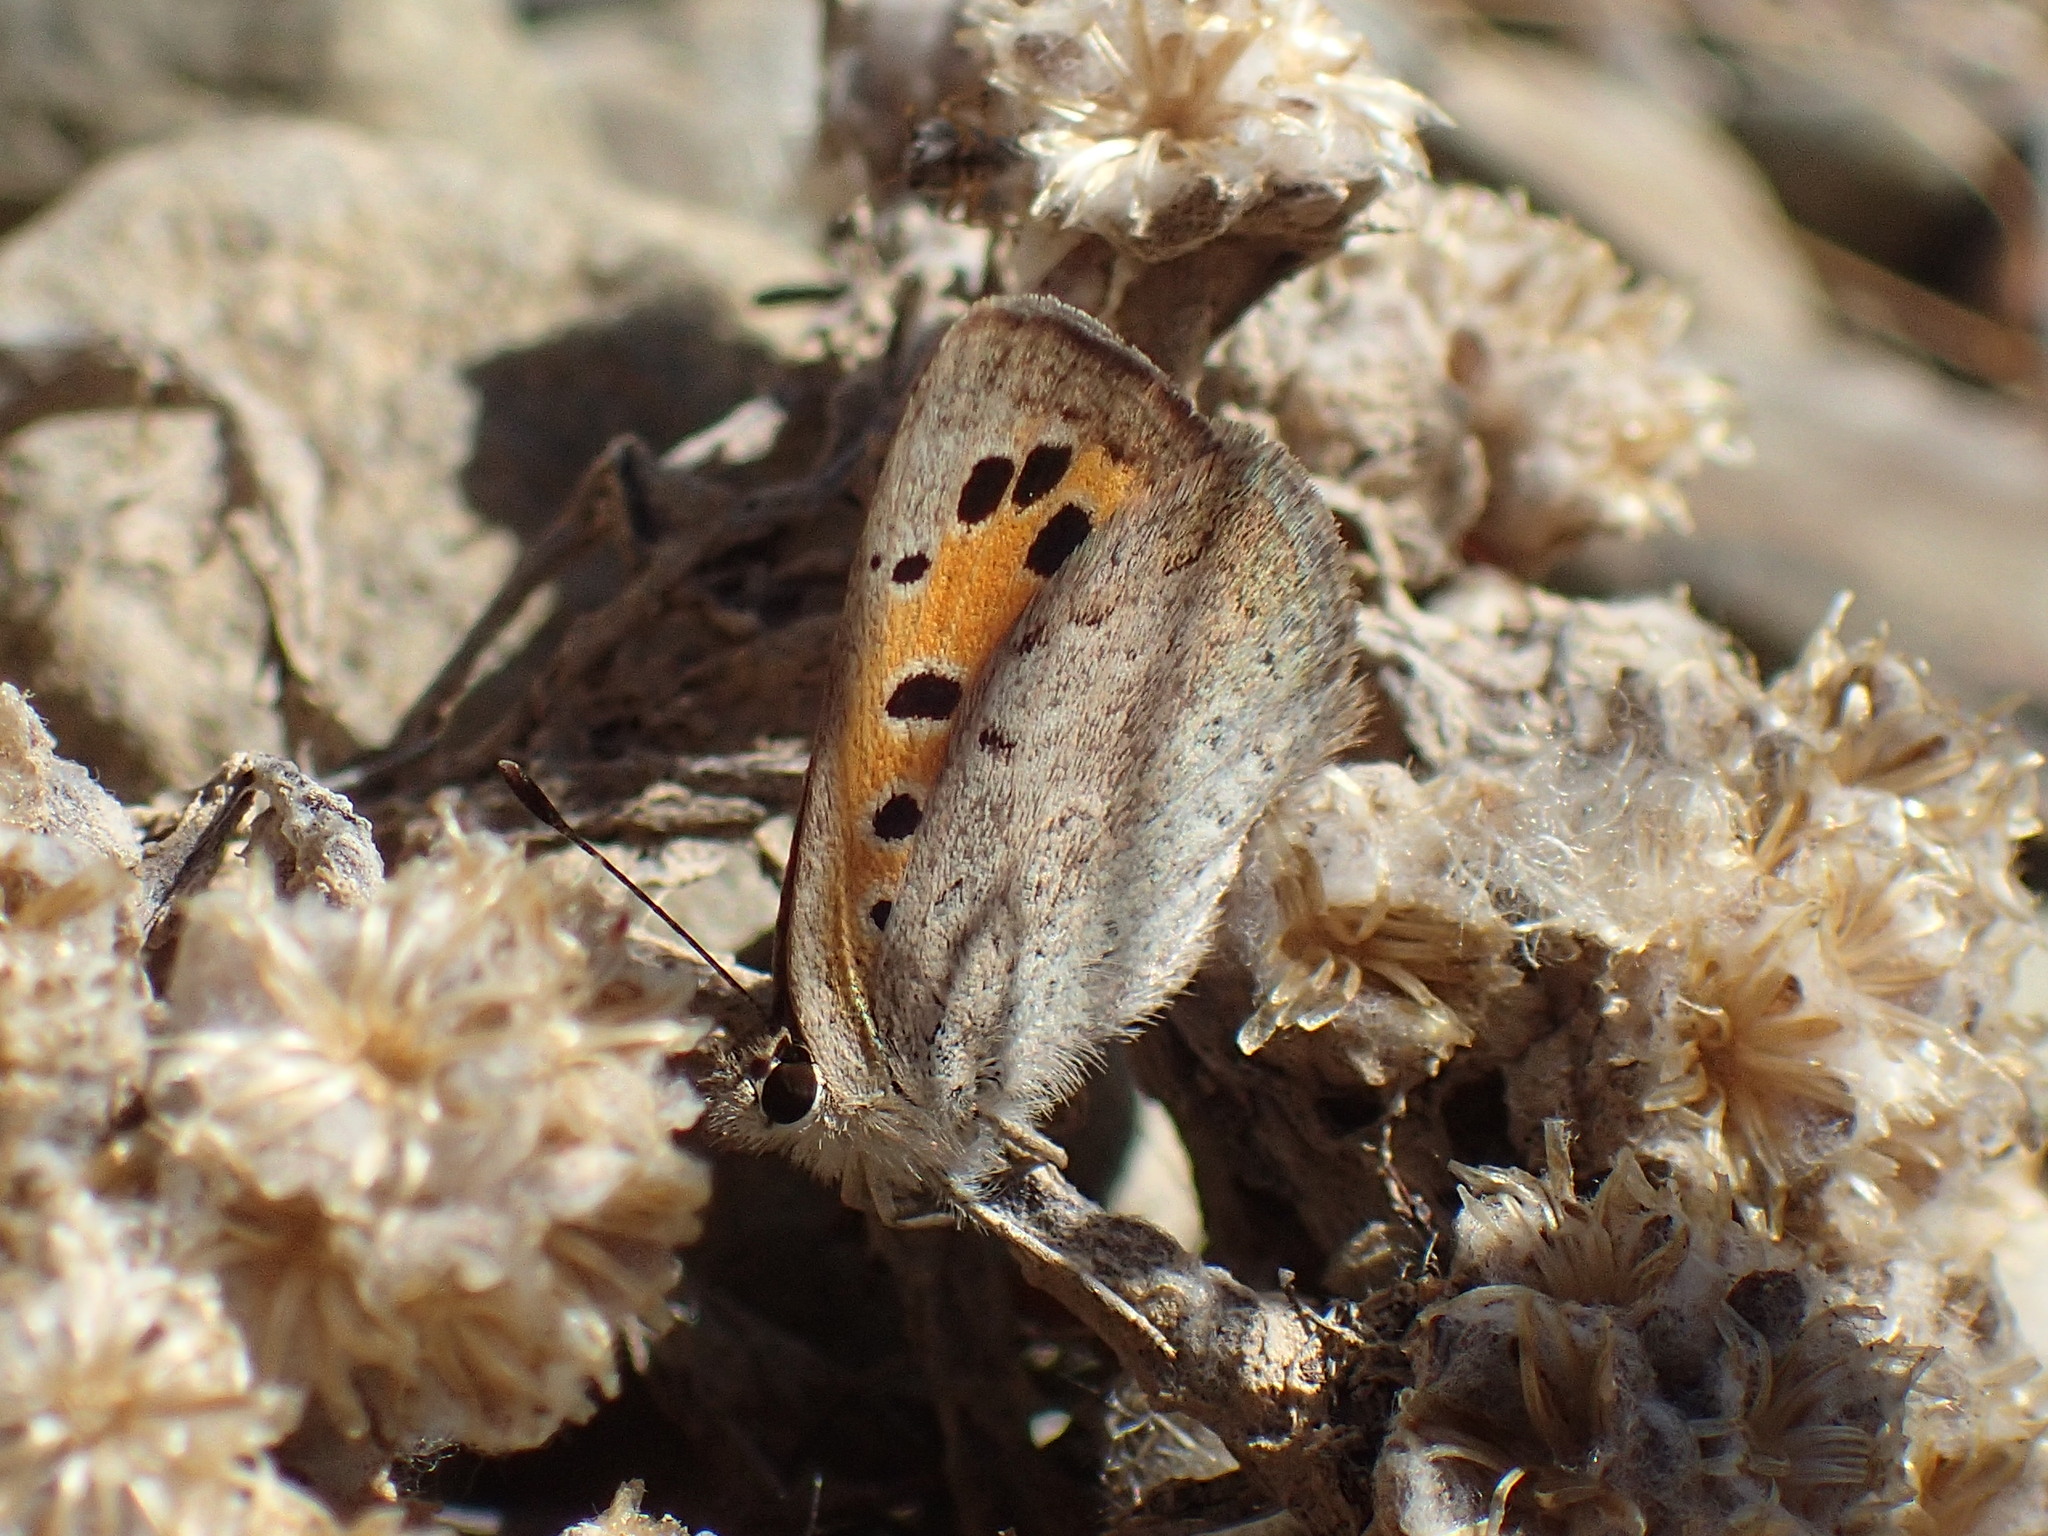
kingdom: Animalia
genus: Lafron
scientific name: Lafron
